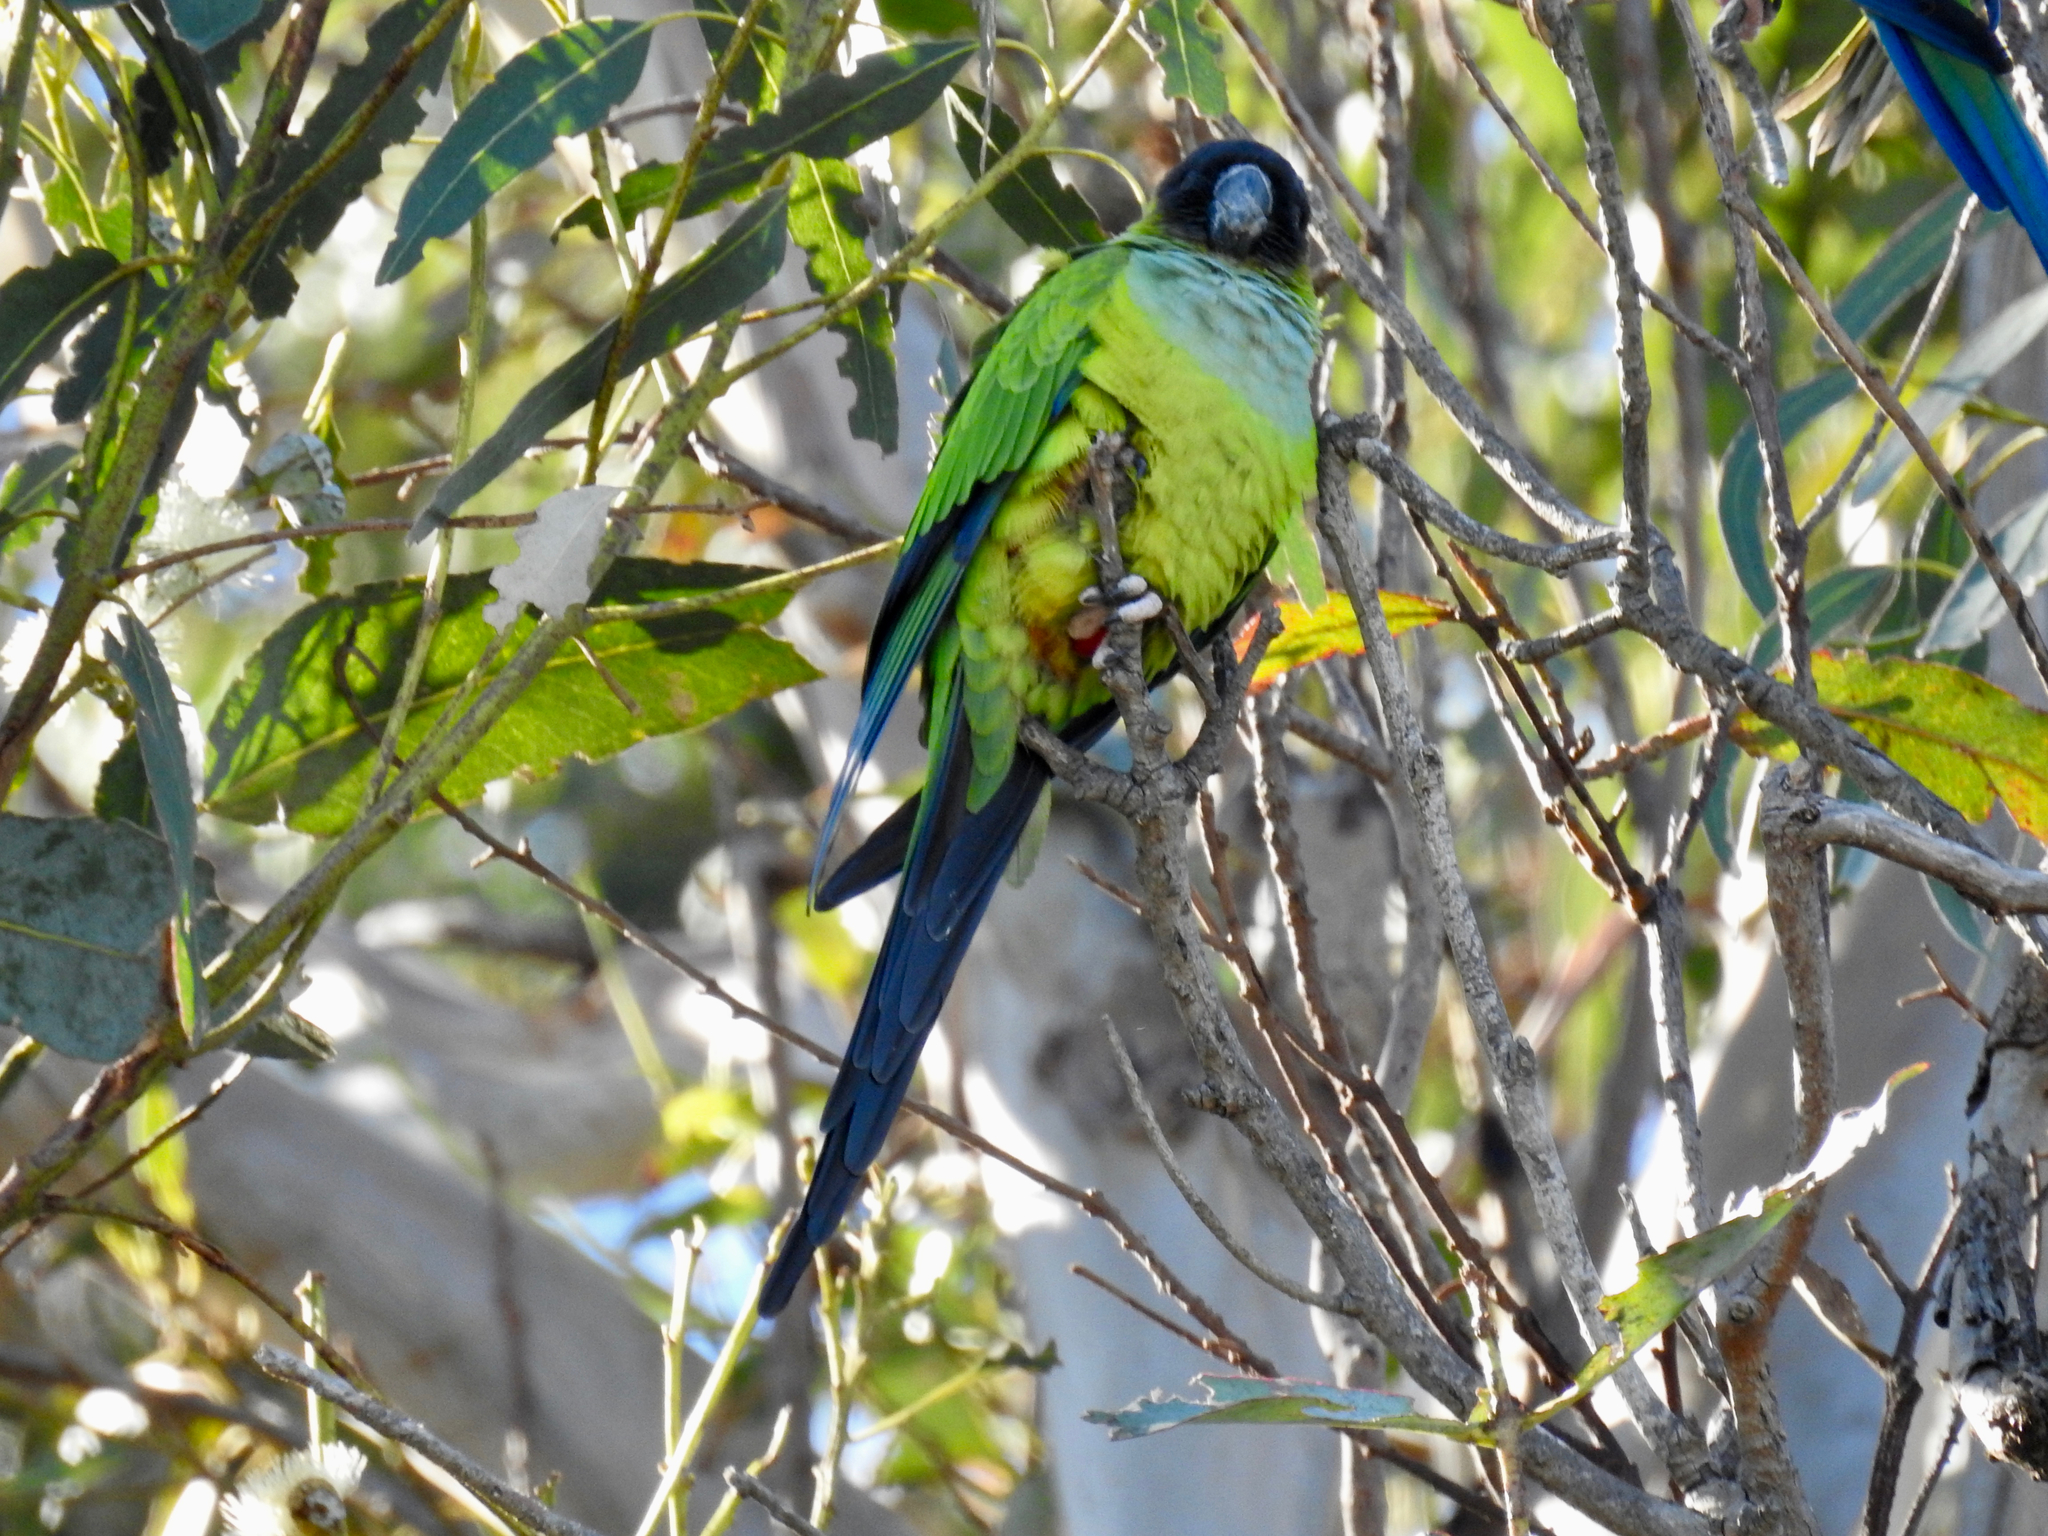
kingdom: Animalia
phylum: Chordata
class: Aves
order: Psittaciformes
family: Psittacidae
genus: Nandayus
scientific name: Nandayus nenday
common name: Nanday parakeet
